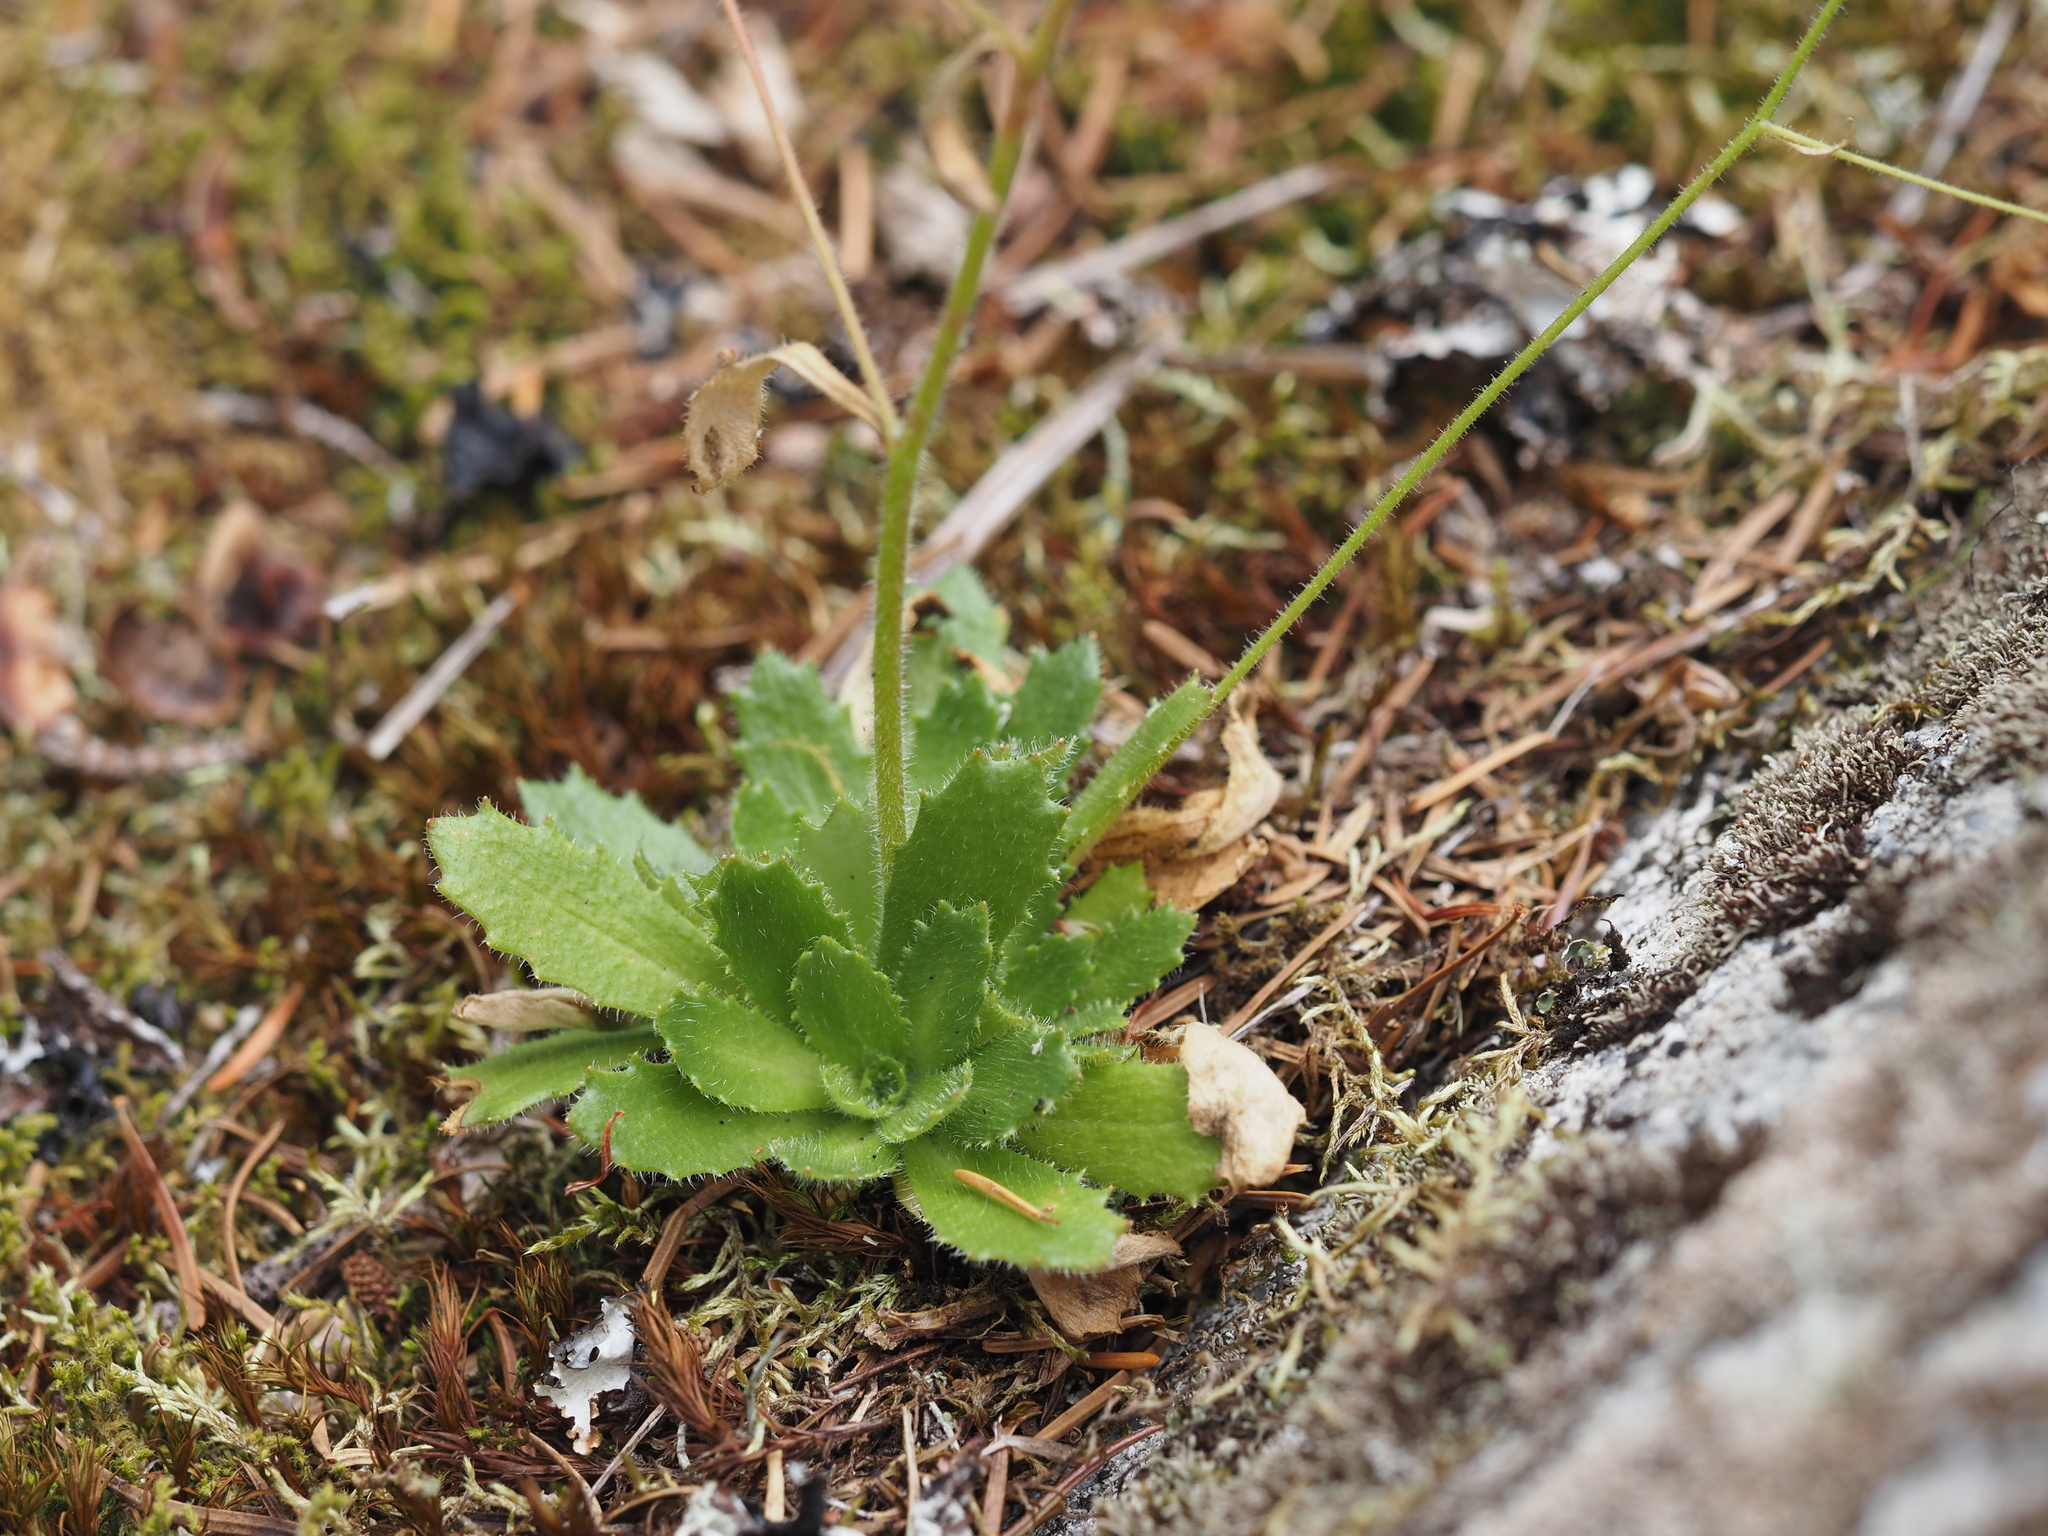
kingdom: Plantae
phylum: Tracheophyta
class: Magnoliopsida
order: Saxifragales
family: Saxifragaceae
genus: Micranthes
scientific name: Micranthes ferruginea
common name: Rusty saxifrage
